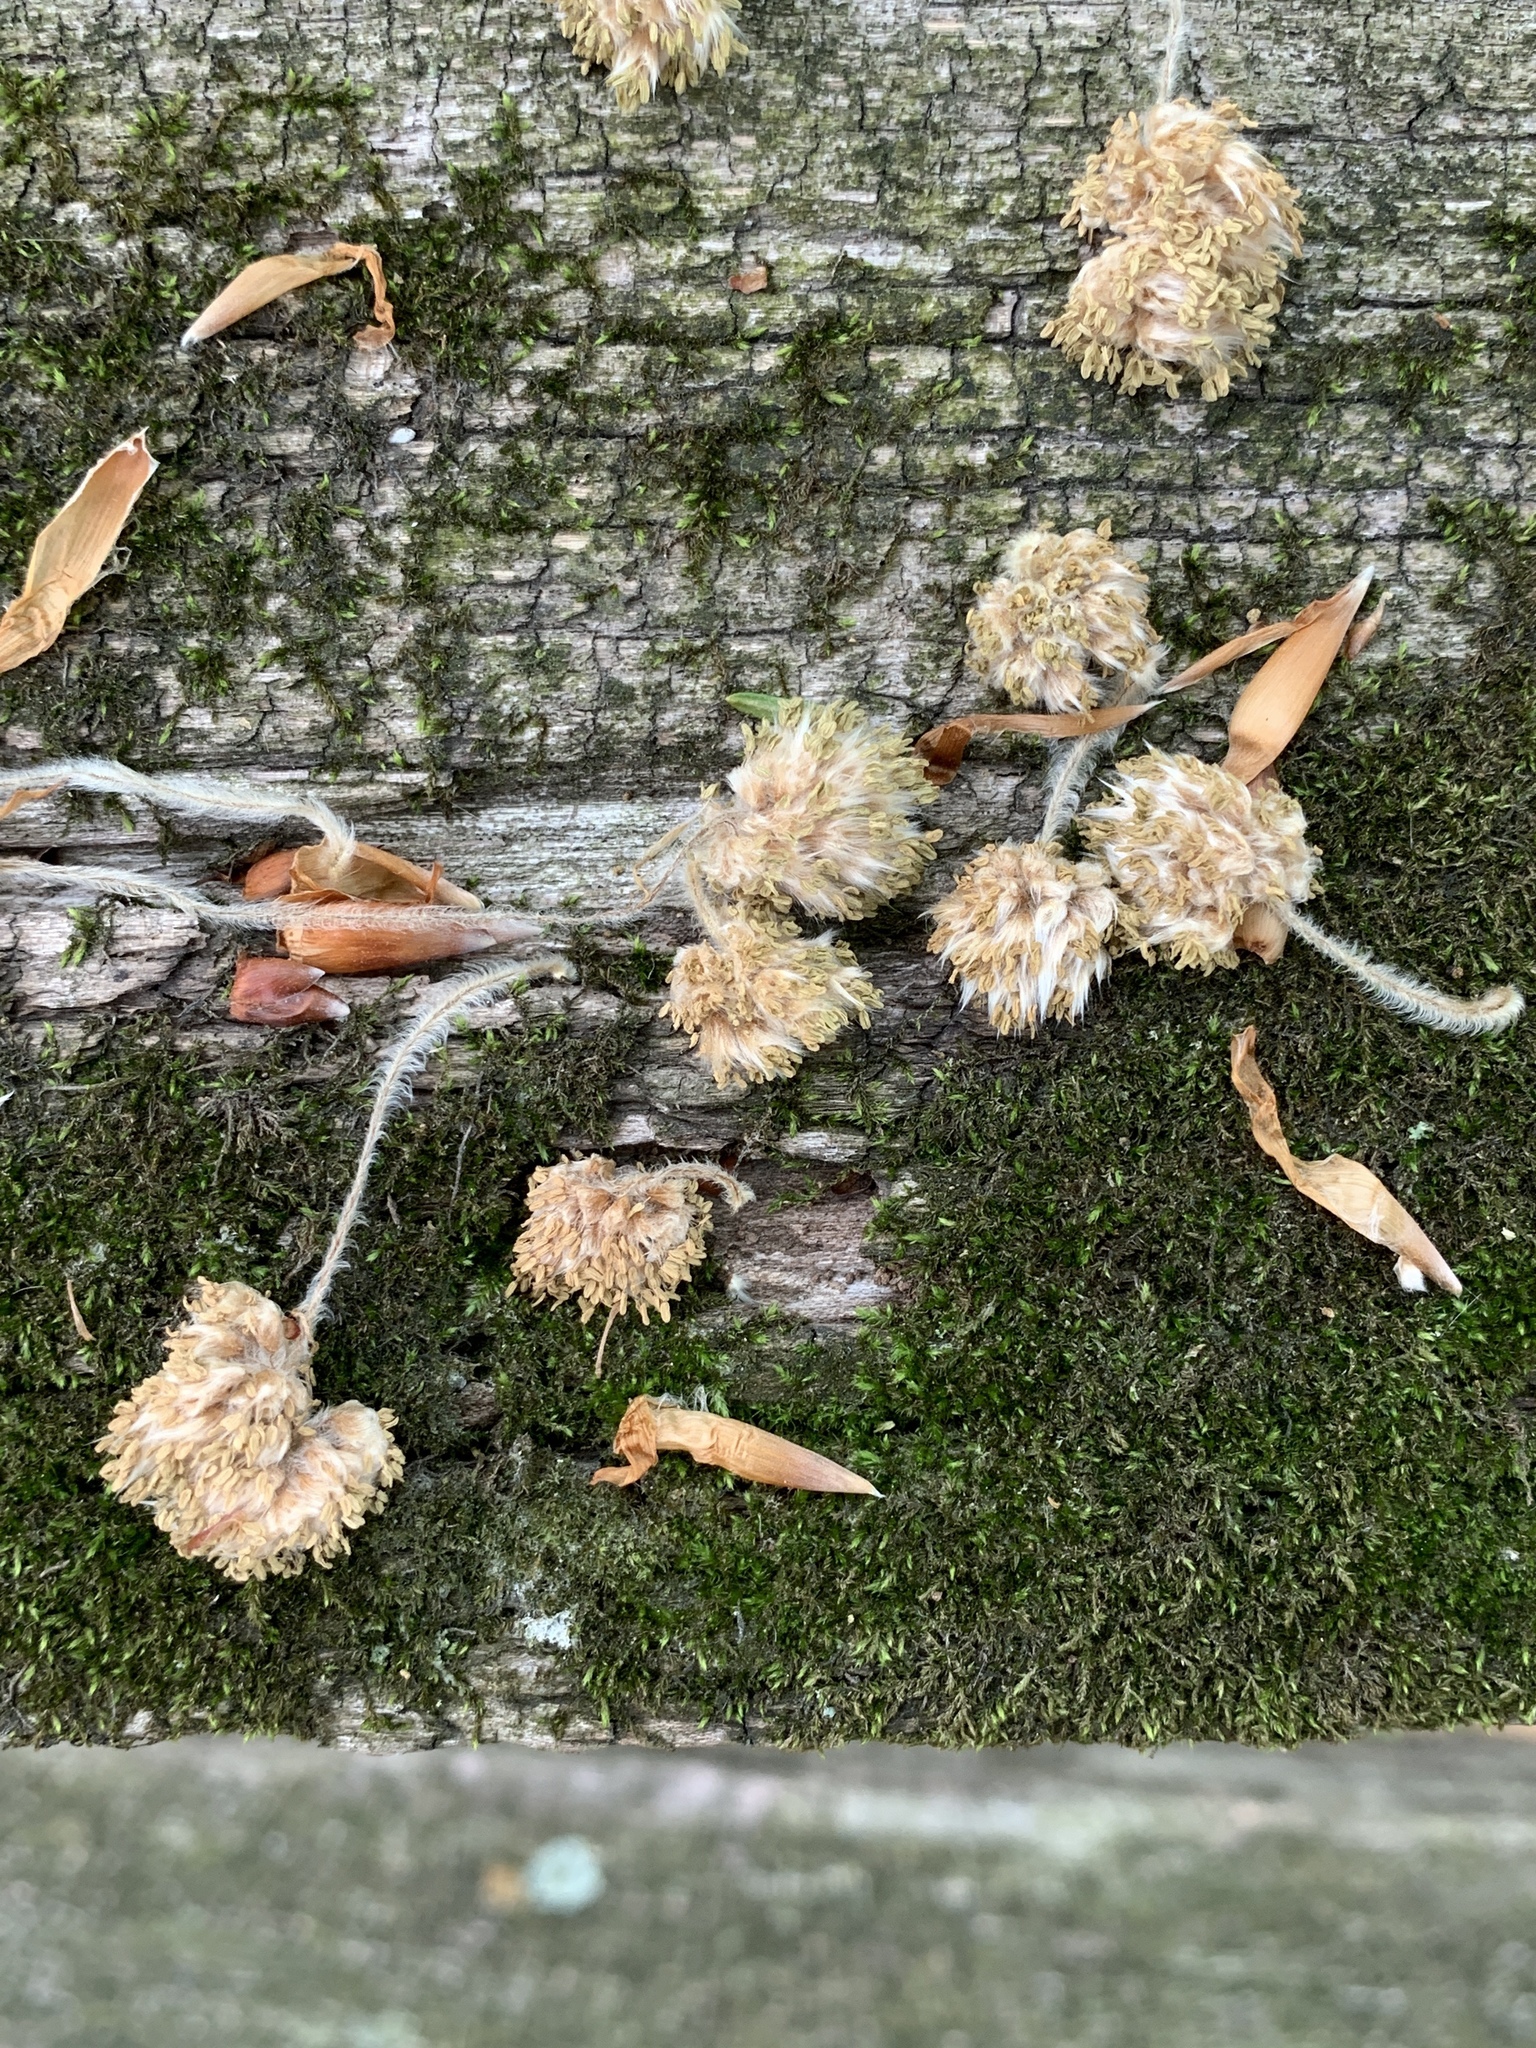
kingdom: Plantae
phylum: Tracheophyta
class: Magnoliopsida
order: Fagales
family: Fagaceae
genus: Fagus
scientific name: Fagus grandifolia
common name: American beech
